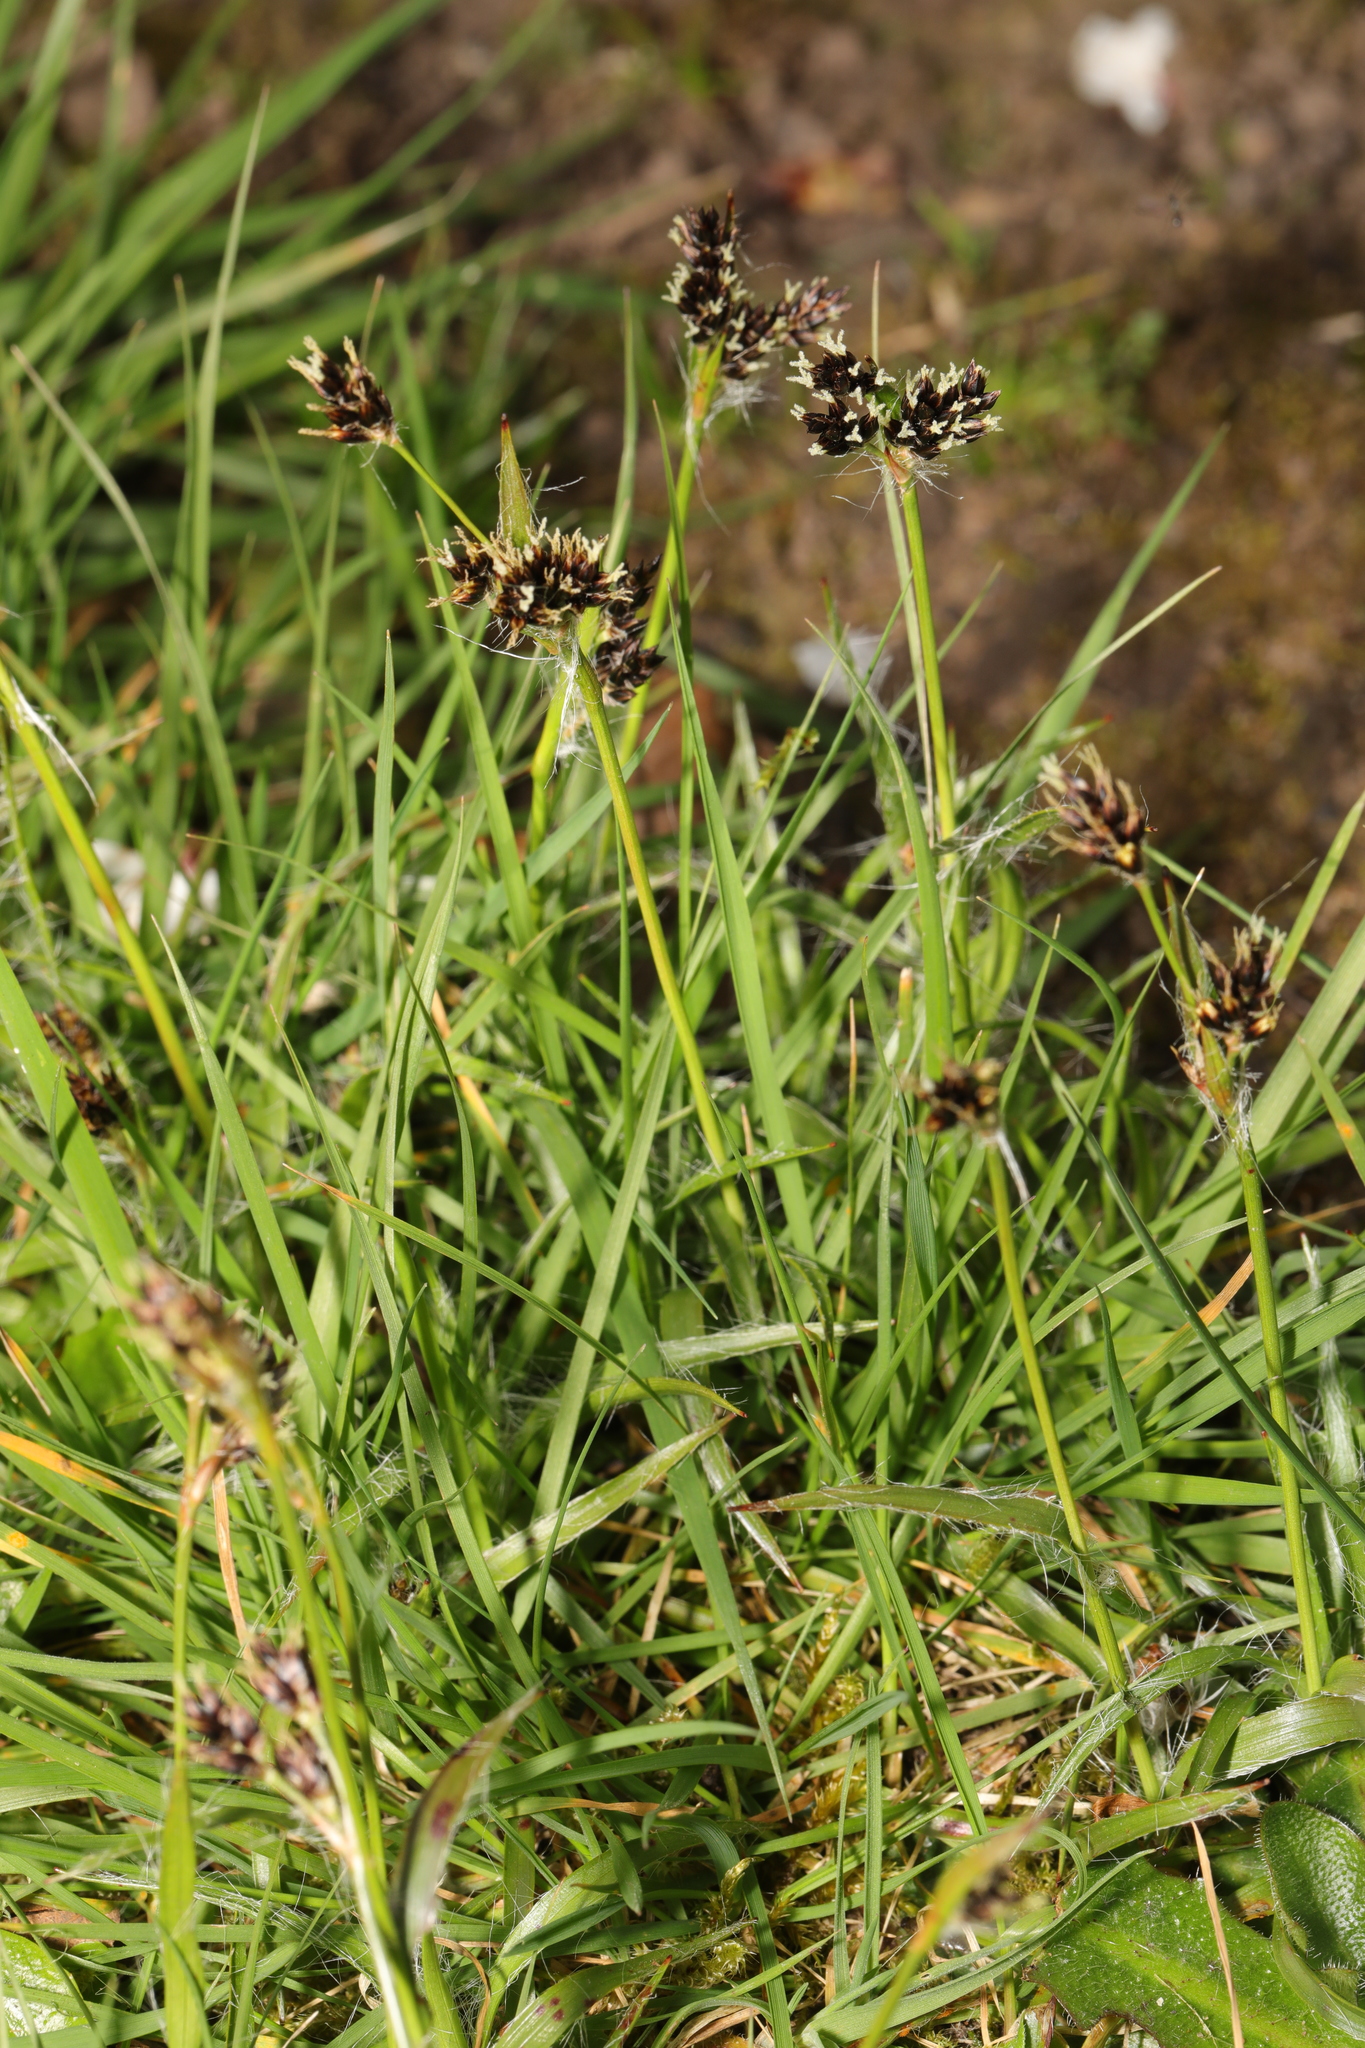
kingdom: Plantae
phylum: Tracheophyta
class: Liliopsida
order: Poales
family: Juncaceae
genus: Luzula
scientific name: Luzula campestris
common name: Field wood-rush
